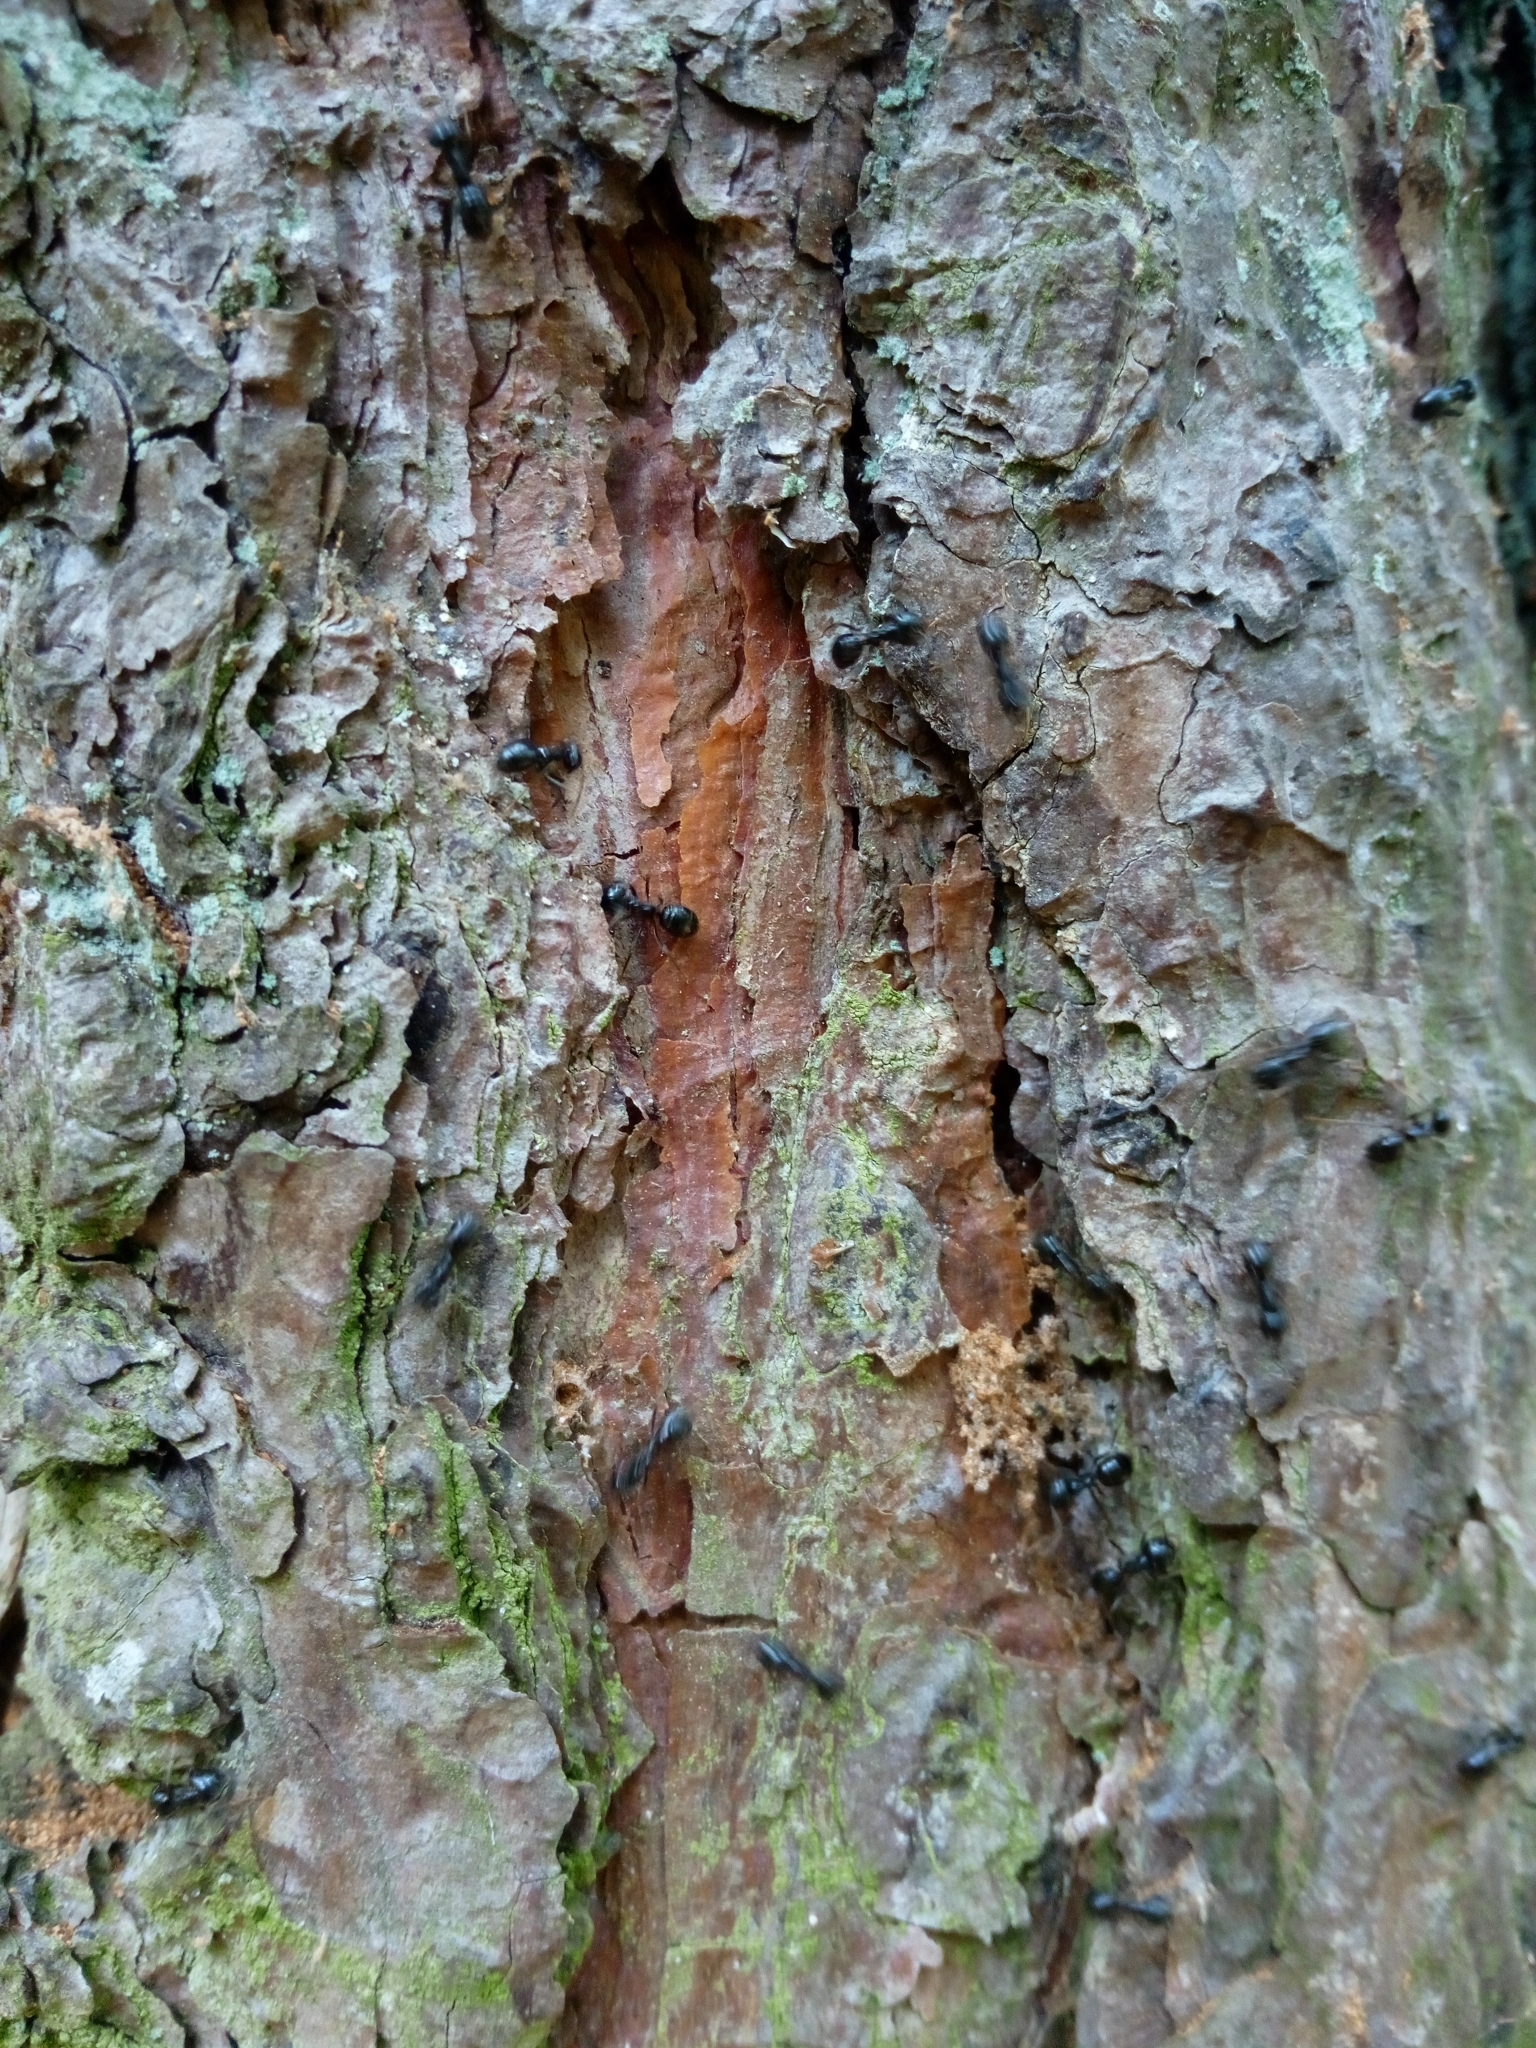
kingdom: Animalia
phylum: Arthropoda
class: Insecta
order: Hymenoptera
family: Formicidae
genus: Lasius
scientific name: Lasius fuliginosus
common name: Jet ant
